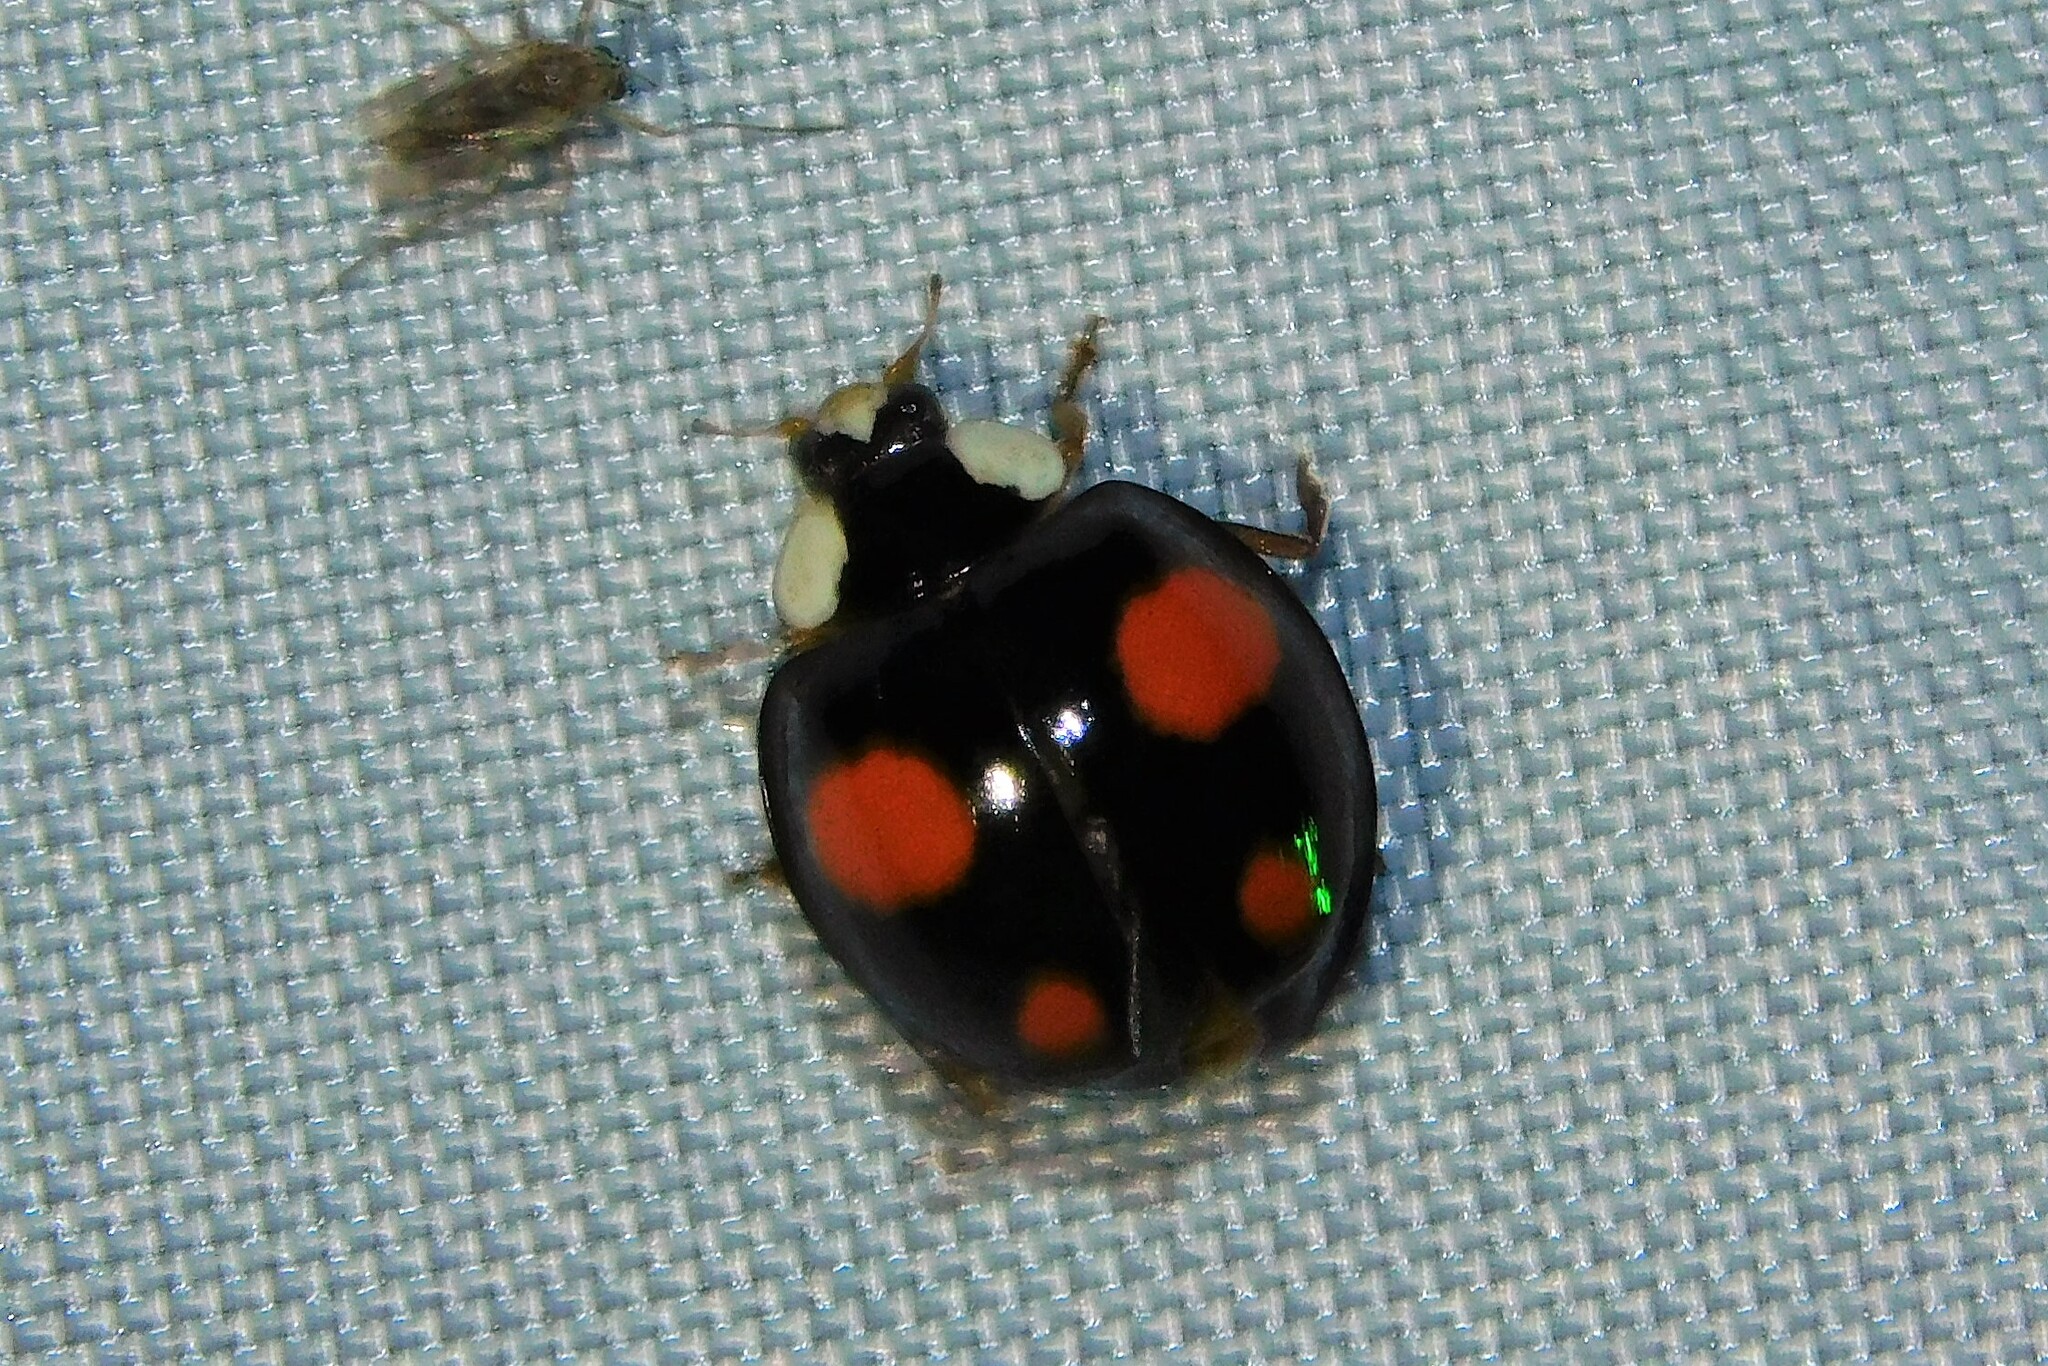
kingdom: Animalia
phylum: Arthropoda
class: Insecta
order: Coleoptera
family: Coccinellidae
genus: Harmonia
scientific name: Harmonia axyridis
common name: Harlequin ladybird
